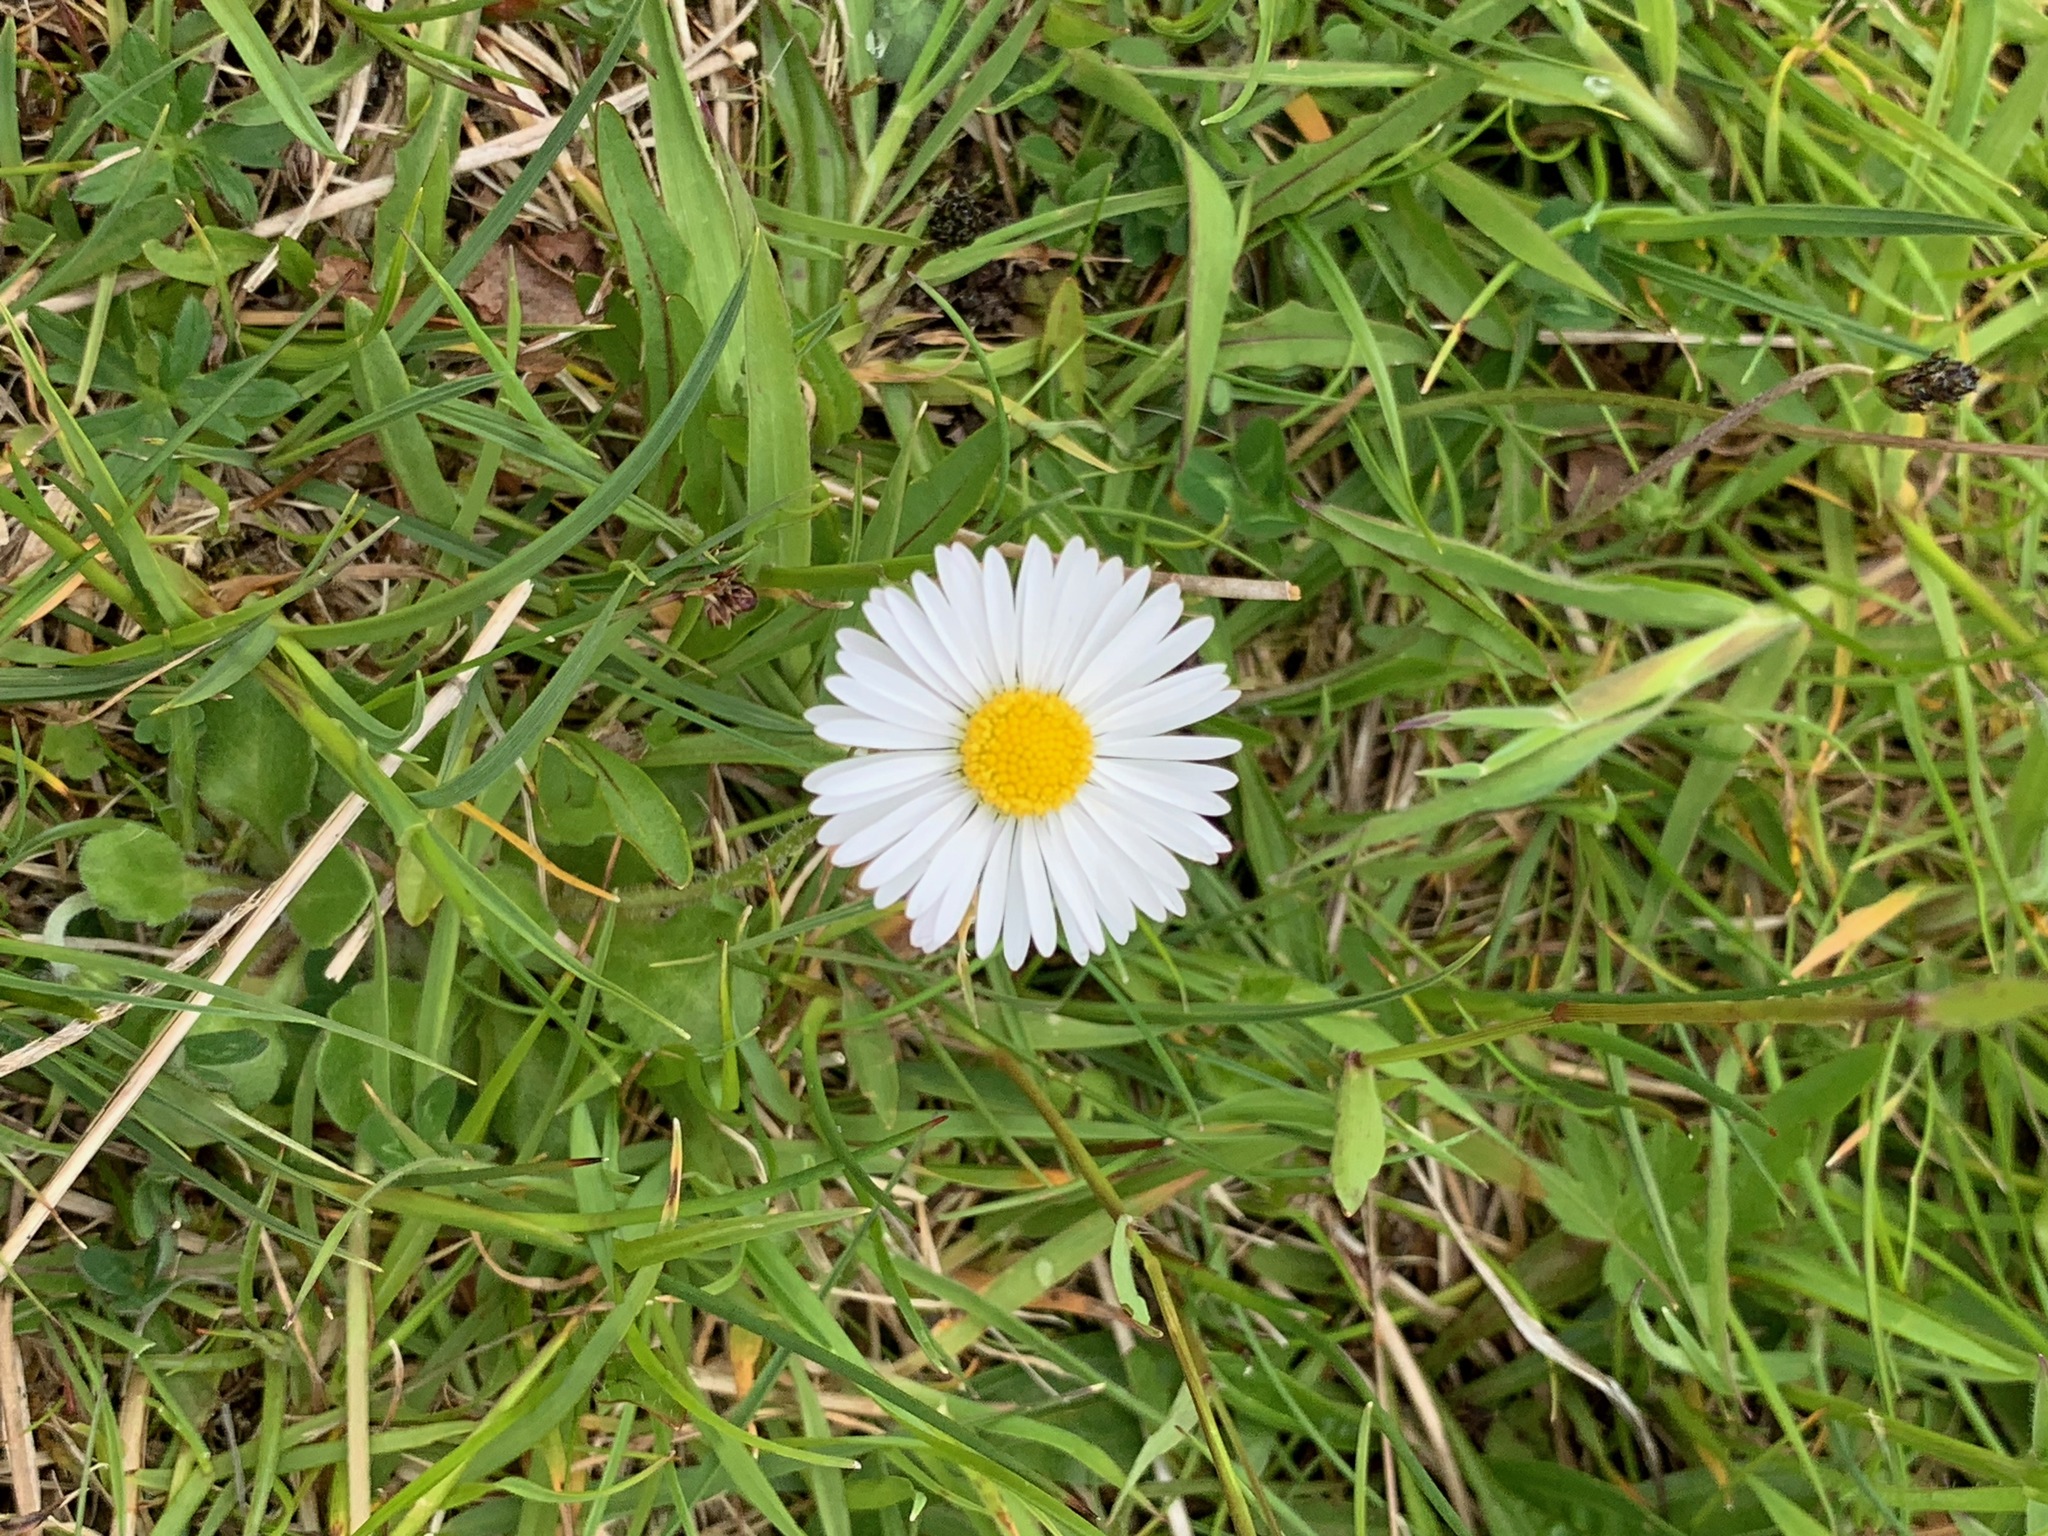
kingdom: Plantae
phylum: Tracheophyta
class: Magnoliopsida
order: Asterales
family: Asteraceae
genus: Bellis
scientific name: Bellis perennis
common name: Lawndaisy
